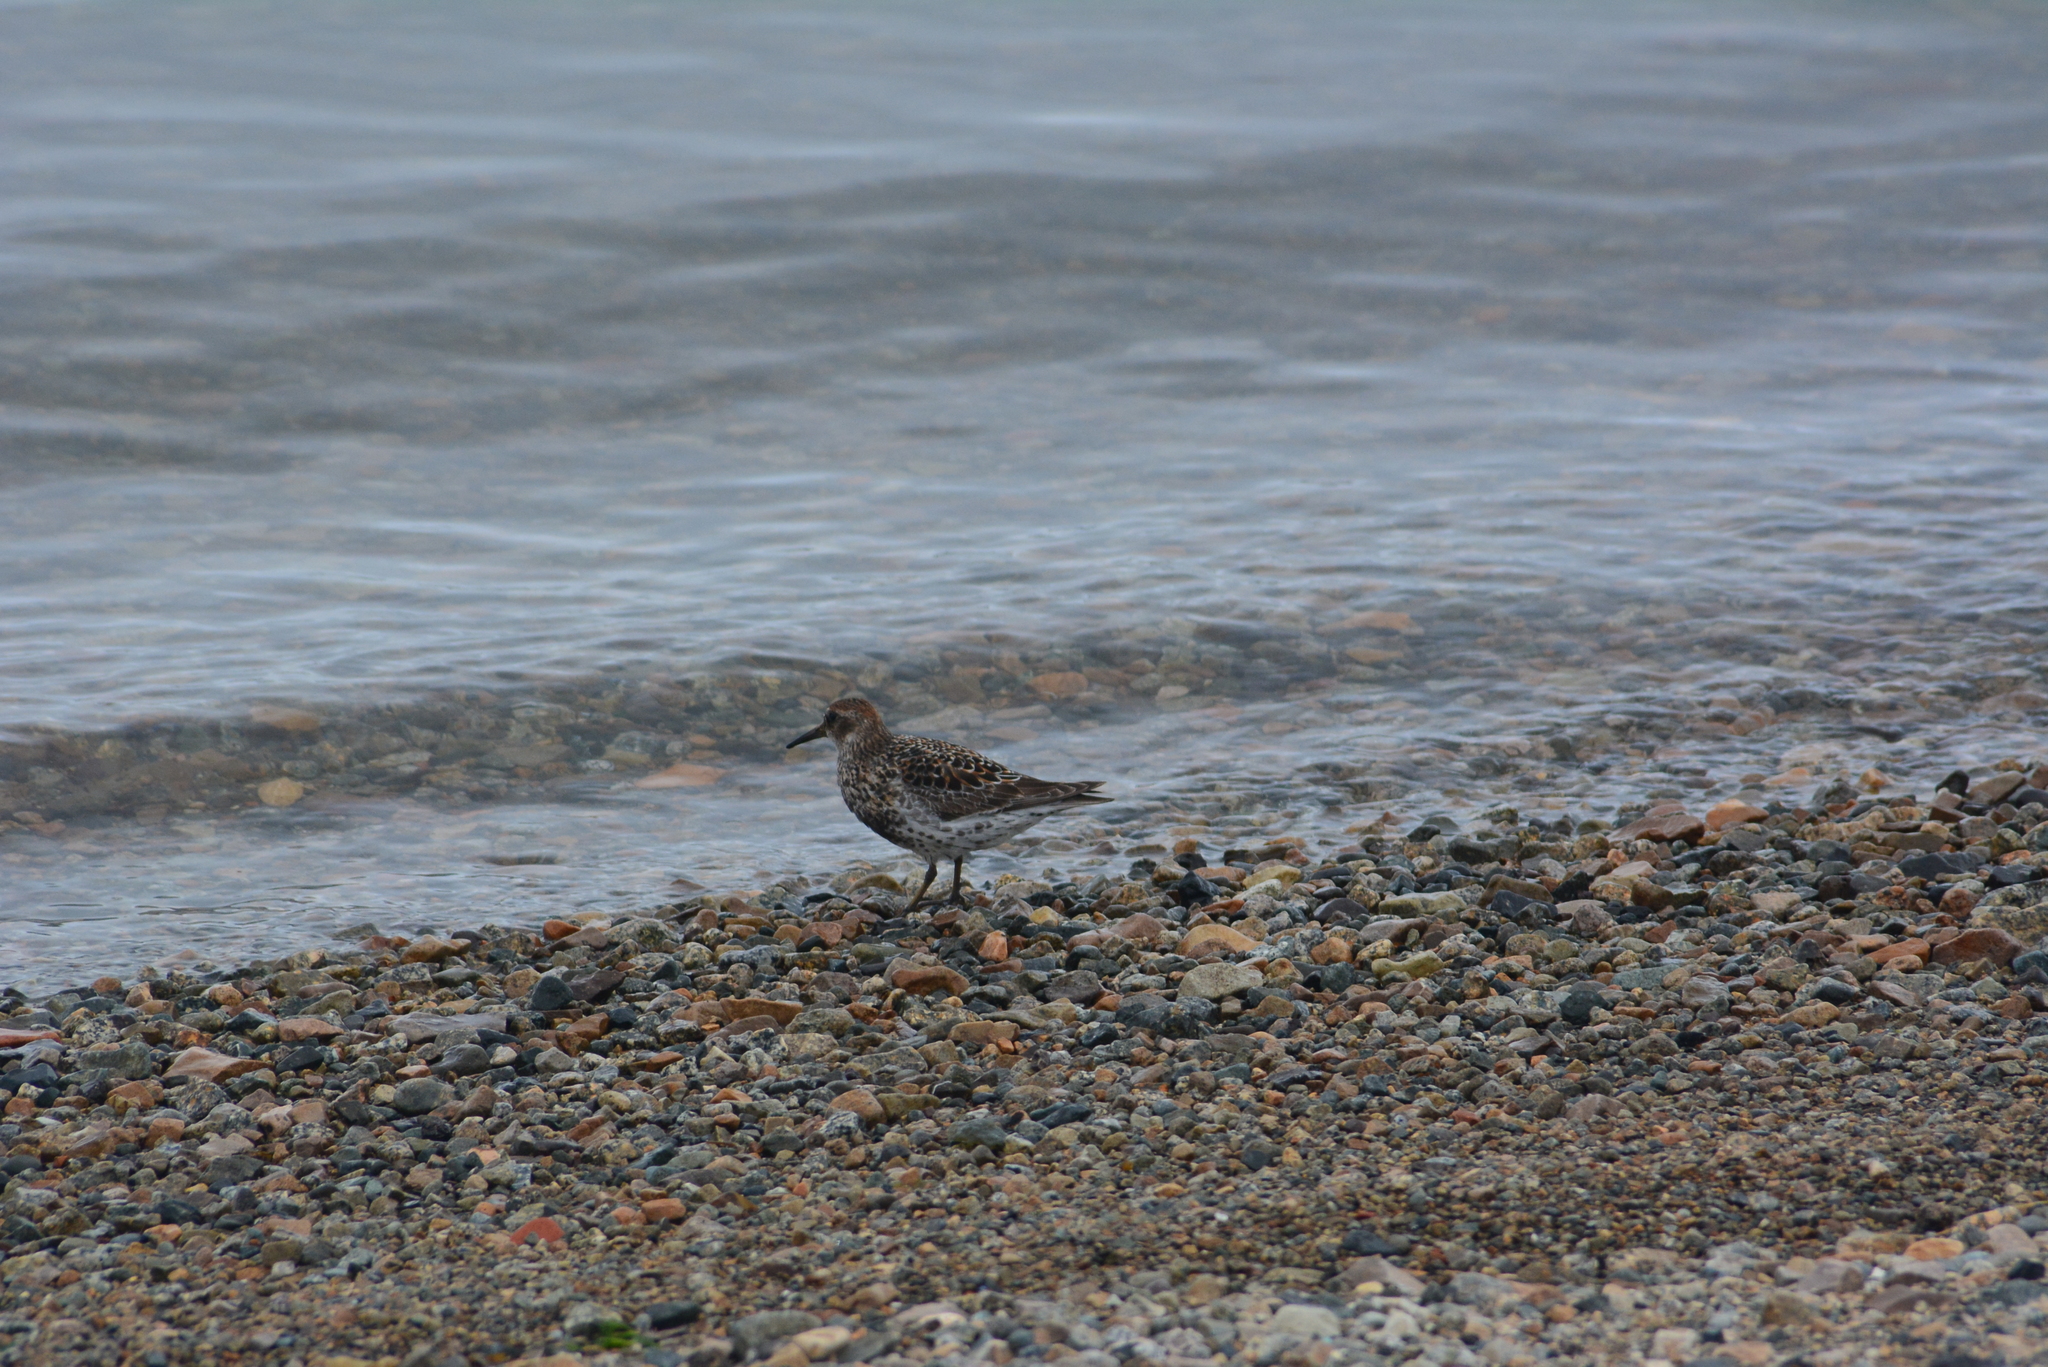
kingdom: Animalia
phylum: Chordata
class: Aves
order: Charadriiformes
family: Scolopacidae
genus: Calidris
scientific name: Calidris ptilocnemis
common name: Rock sandpiper
